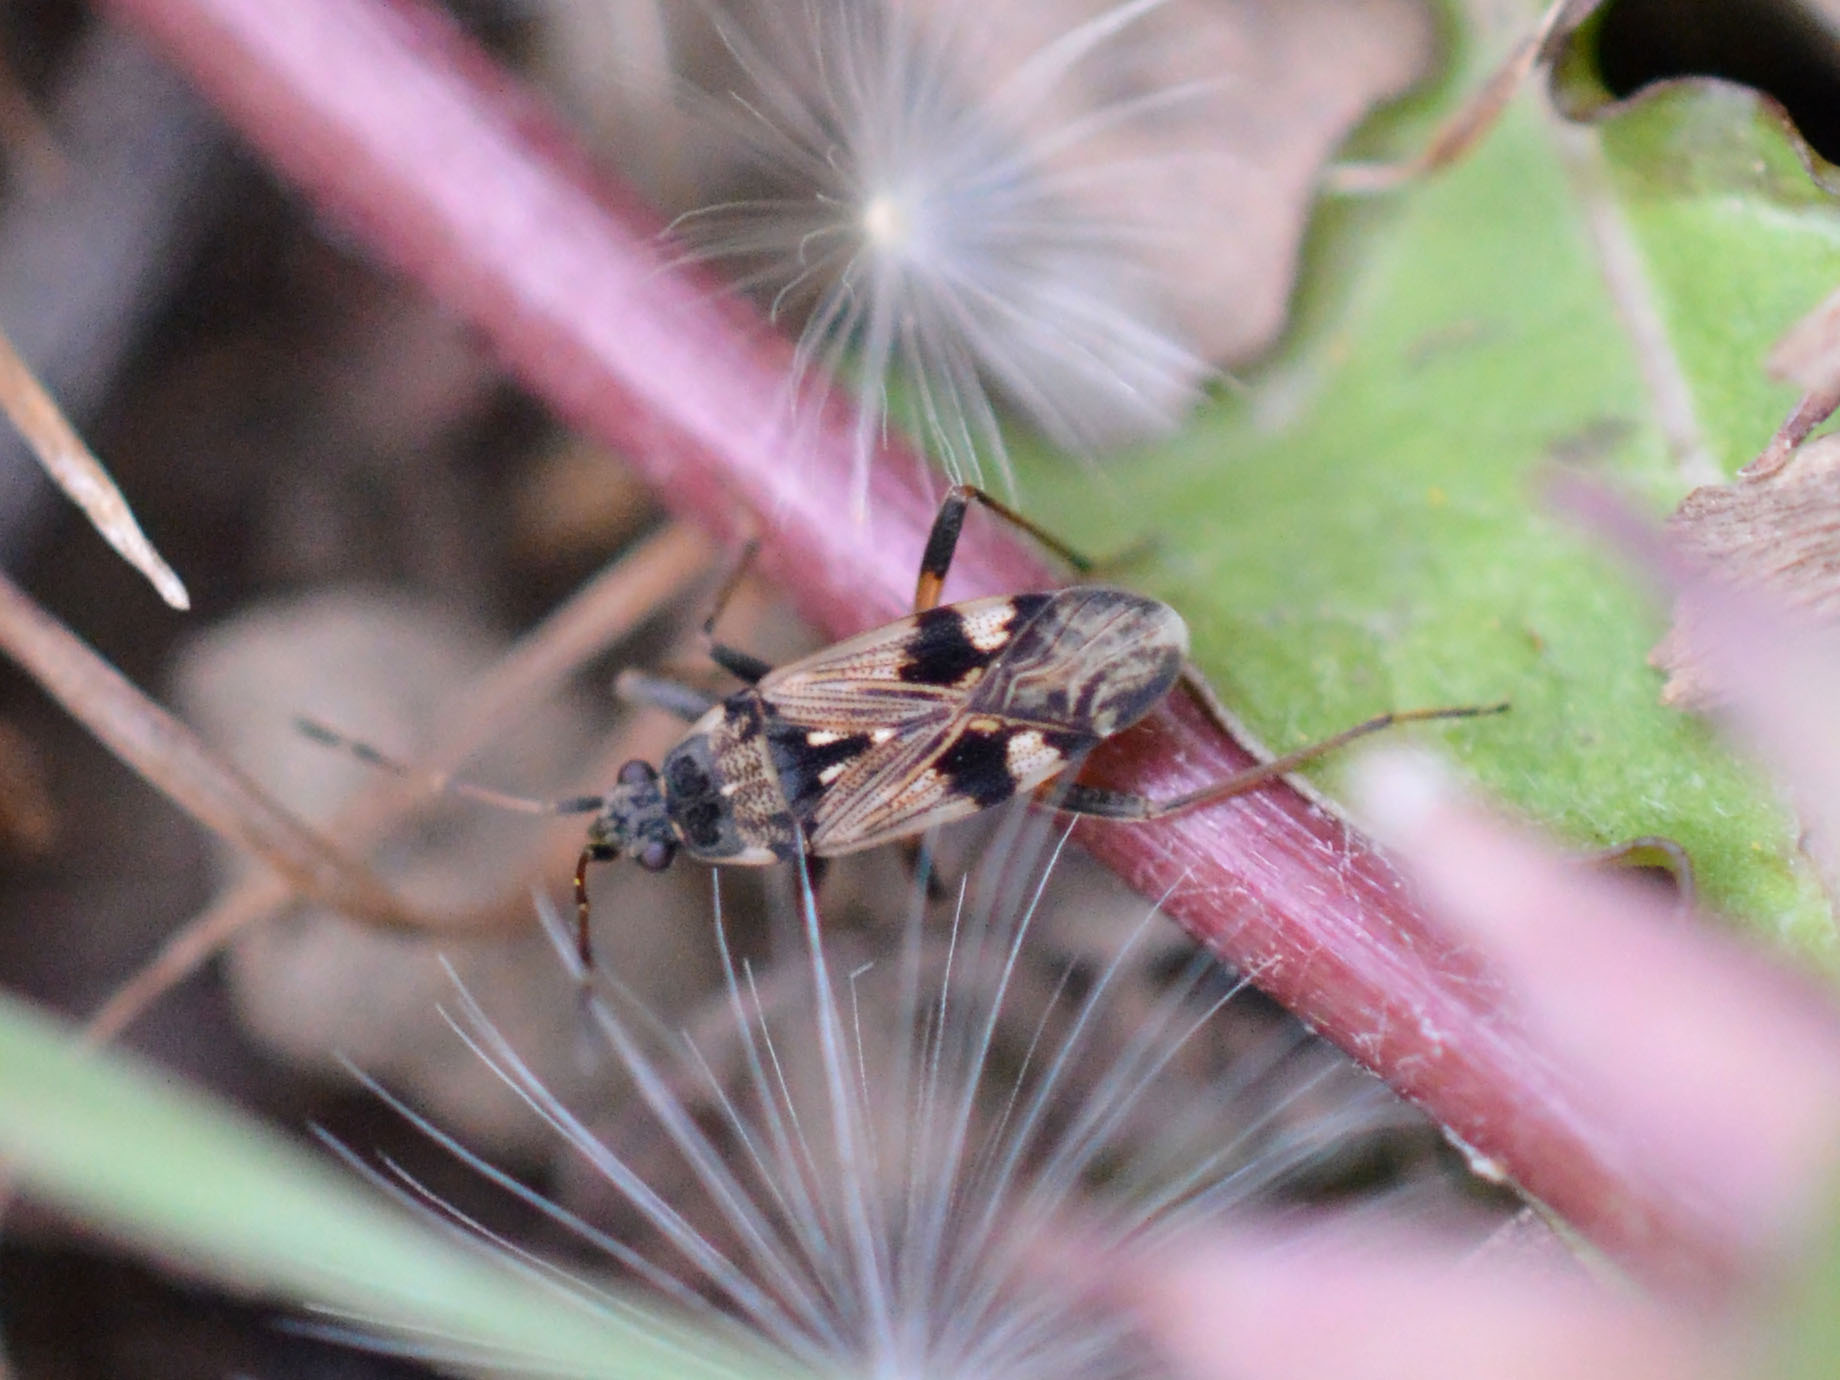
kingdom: Animalia
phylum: Arthropoda
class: Insecta
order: Hemiptera
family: Rhyparochromidae
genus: Beosus
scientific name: Beosus maritimus
